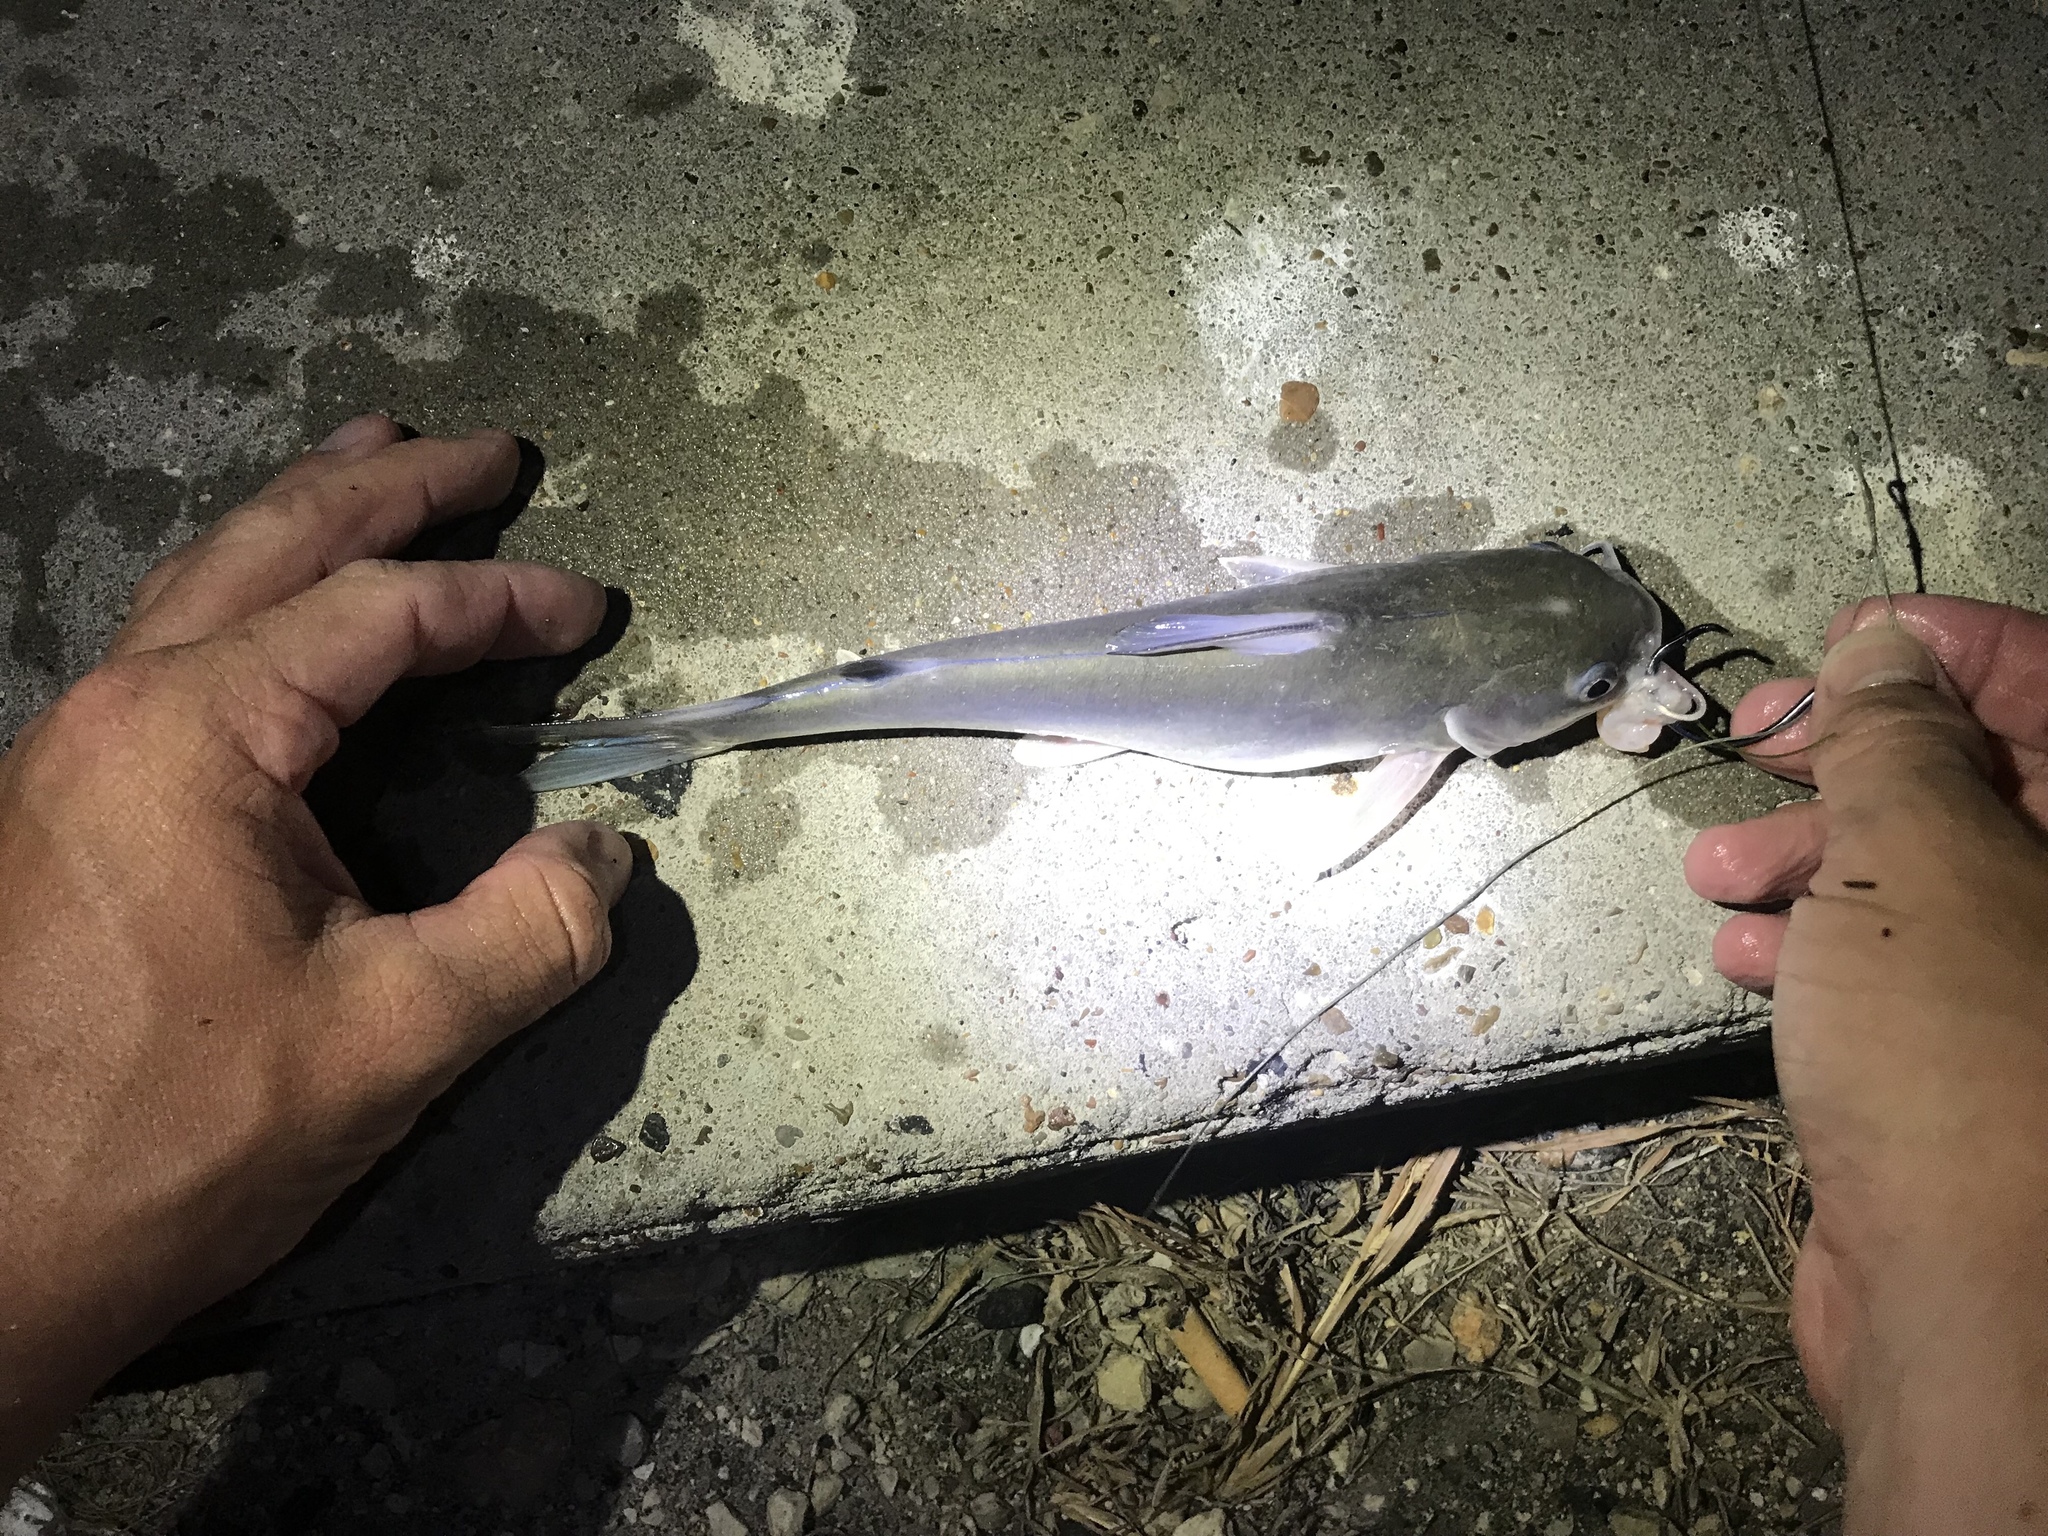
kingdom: Animalia
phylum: Chordata
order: Siluriformes
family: Ariidae
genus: Ariopsis
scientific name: Ariopsis felis
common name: Hardhead catfish
